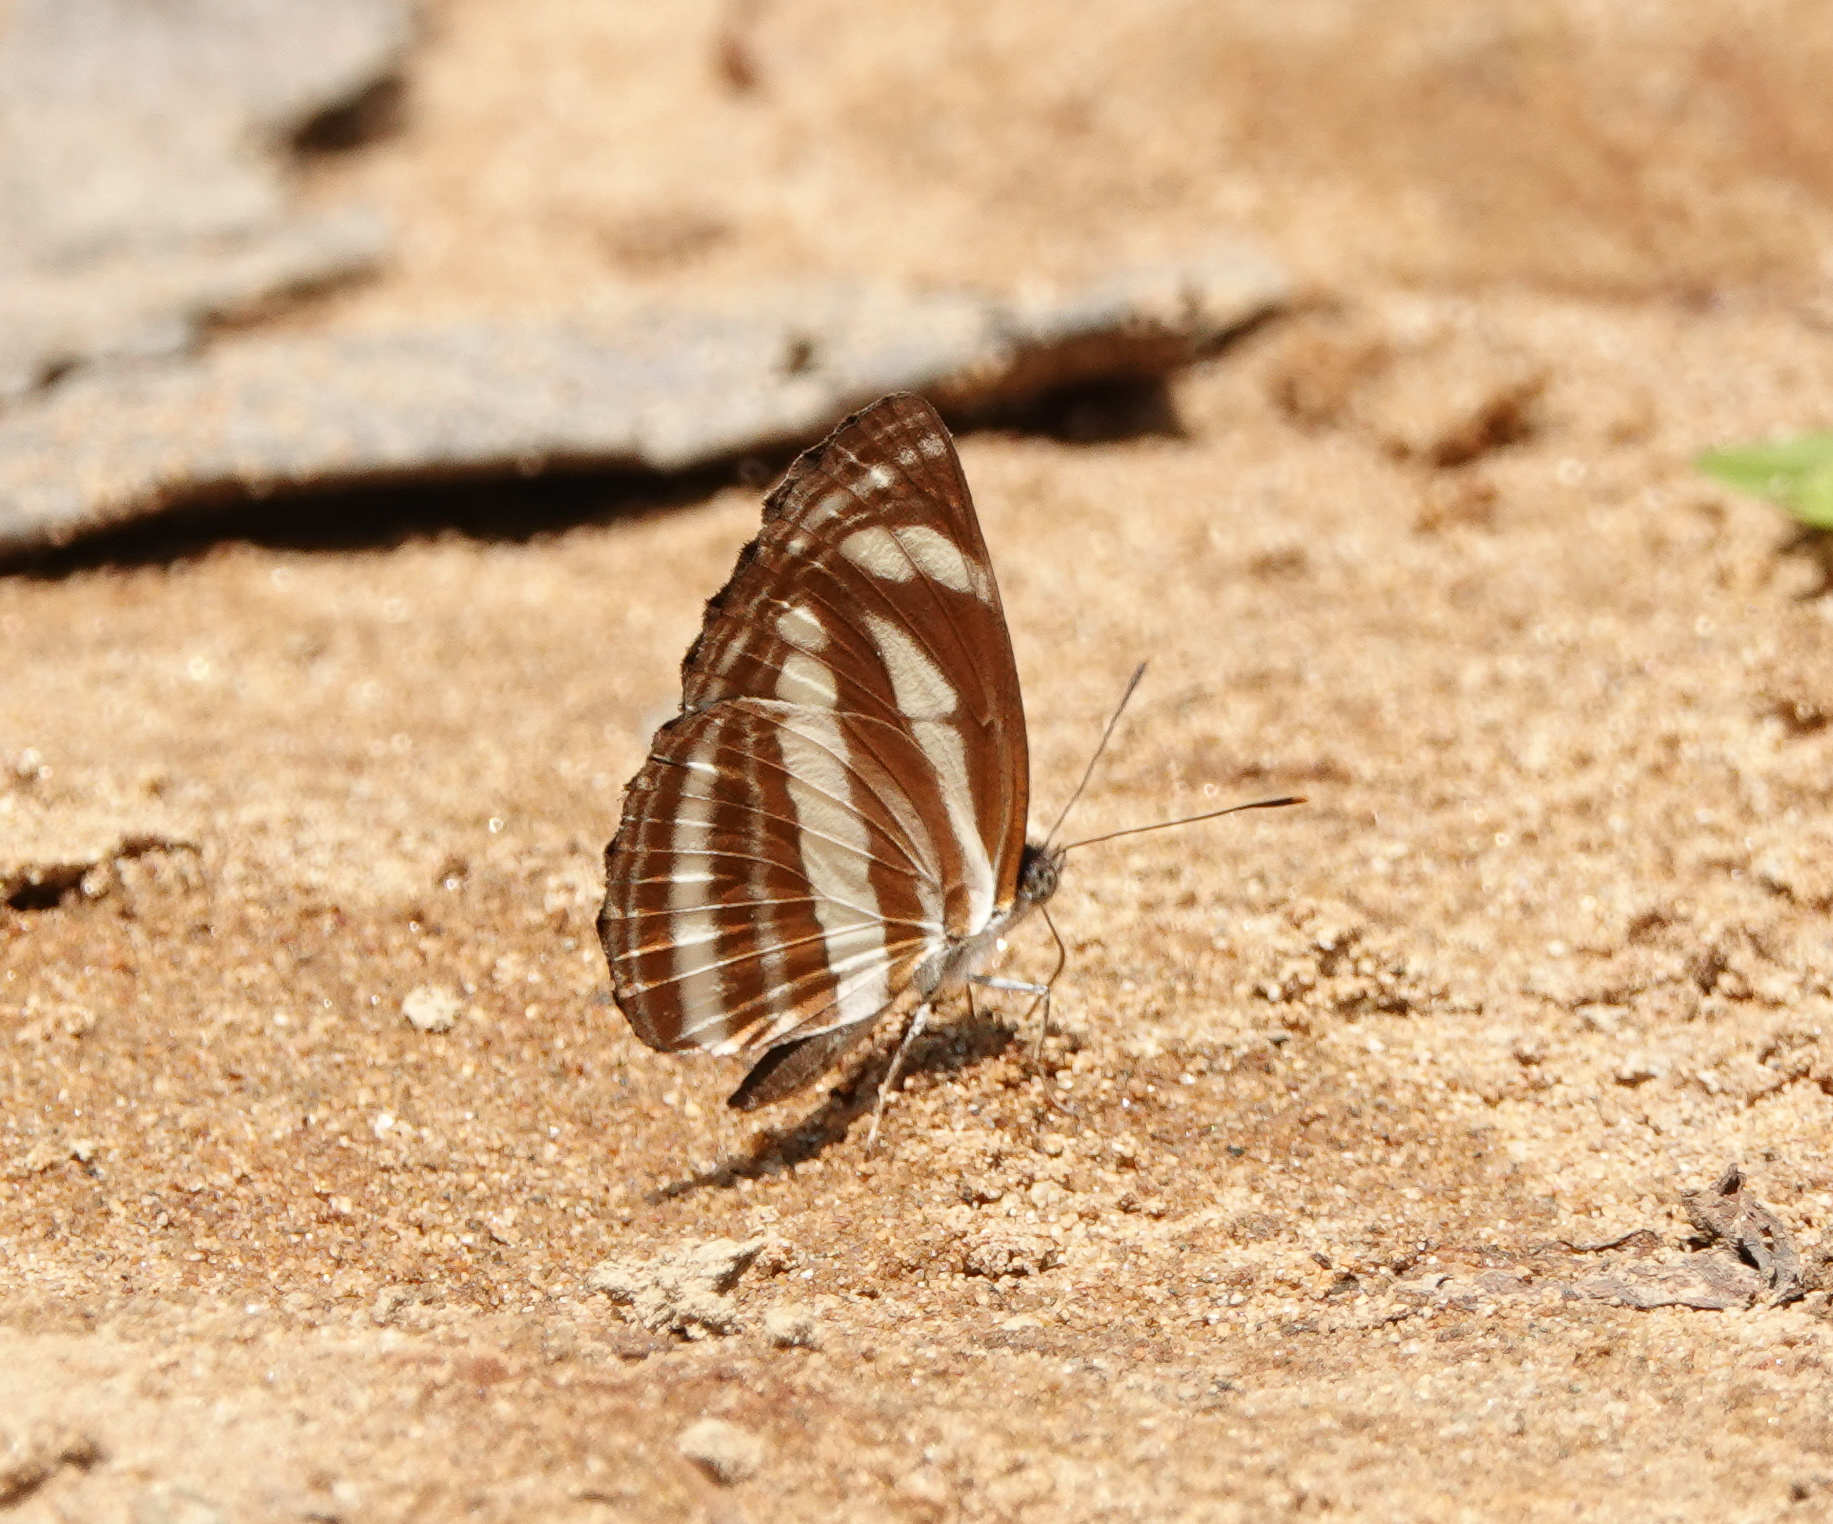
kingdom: Animalia
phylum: Arthropoda
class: Insecta
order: Lepidoptera
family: Nymphalidae
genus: Neptis
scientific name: Neptis clinia
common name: Southern sullied sailer
